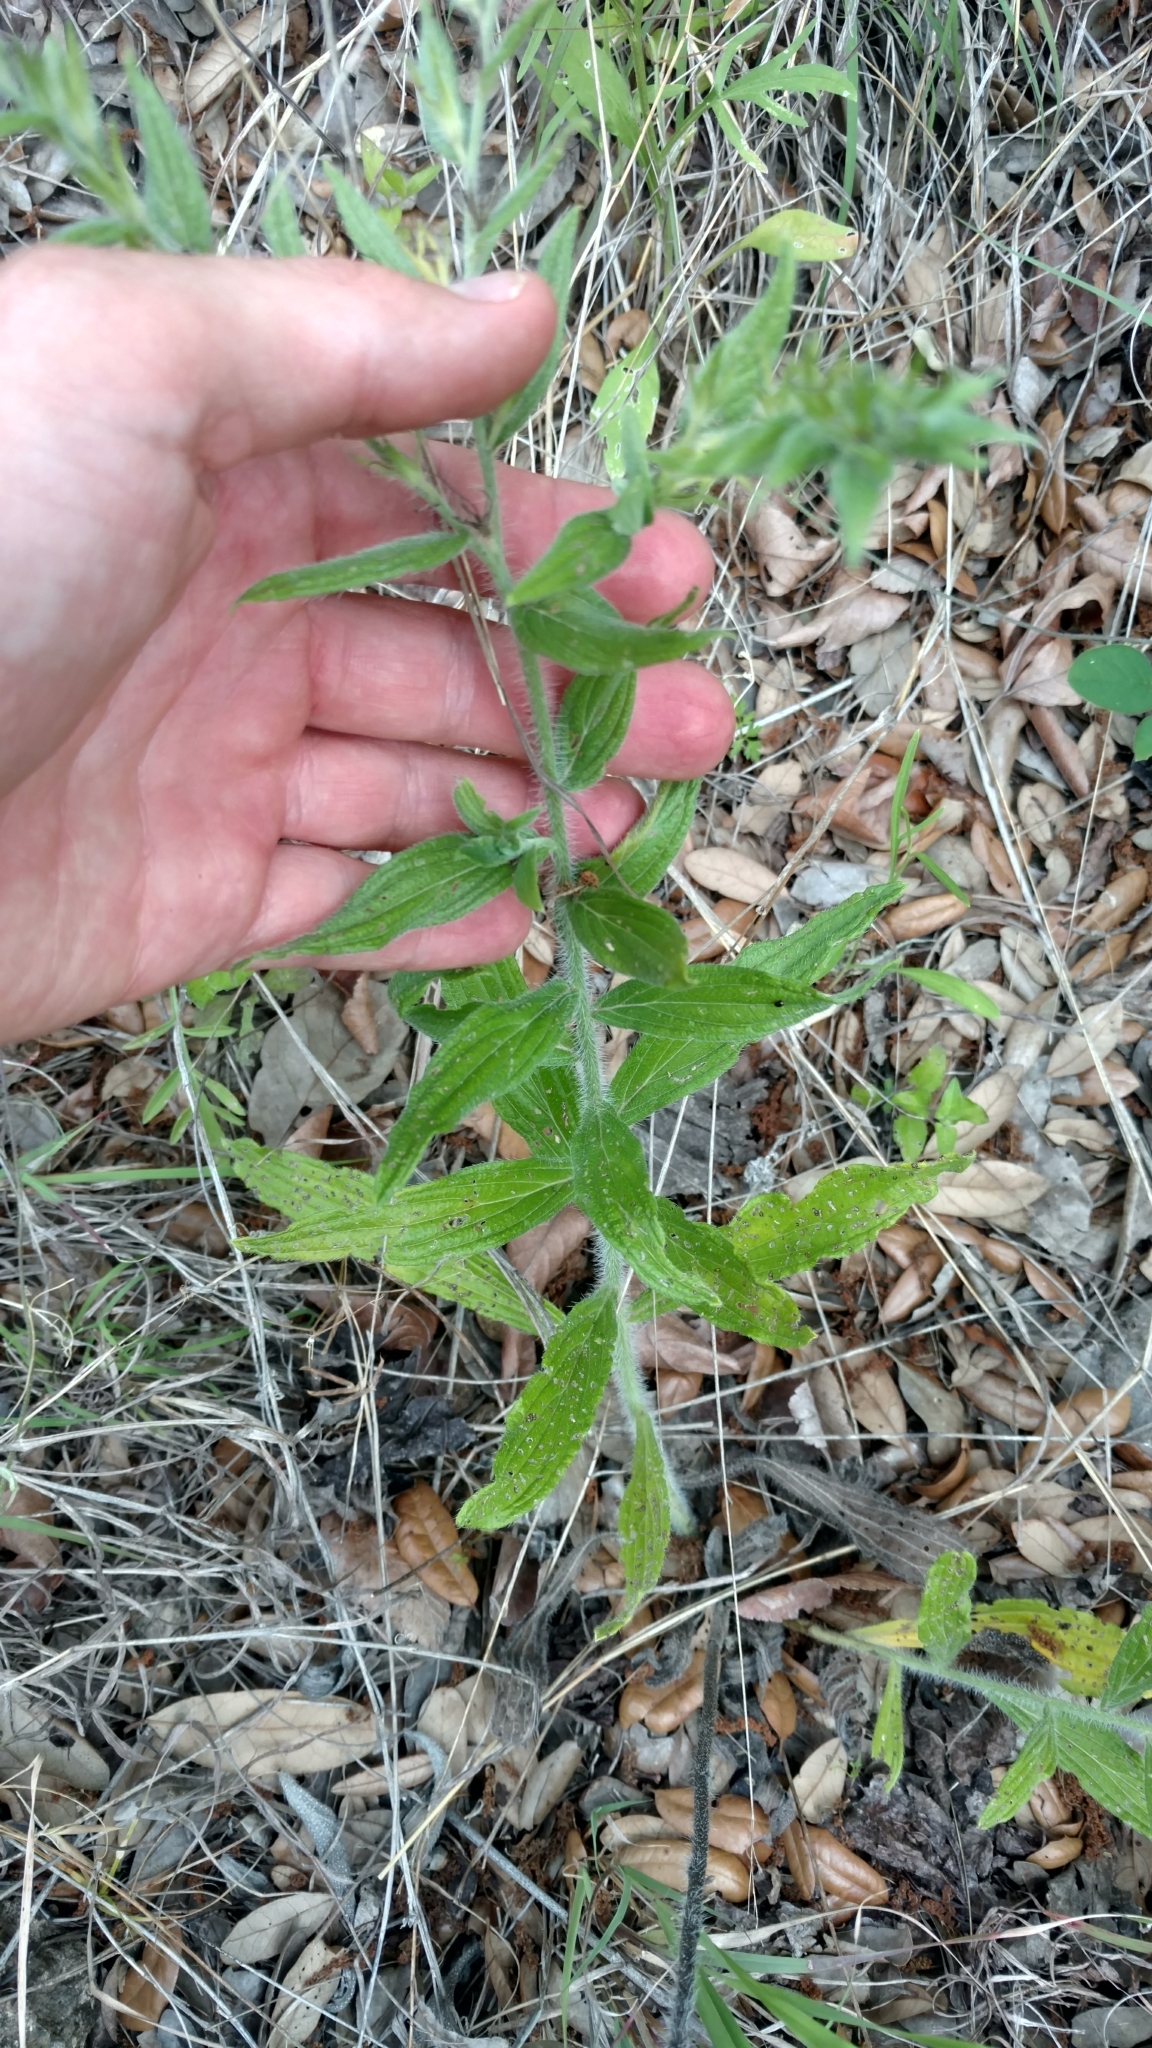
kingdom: Plantae
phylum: Tracheophyta
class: Magnoliopsida
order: Boraginales
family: Boraginaceae
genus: Lithospermum
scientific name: Lithospermum caroliniense
